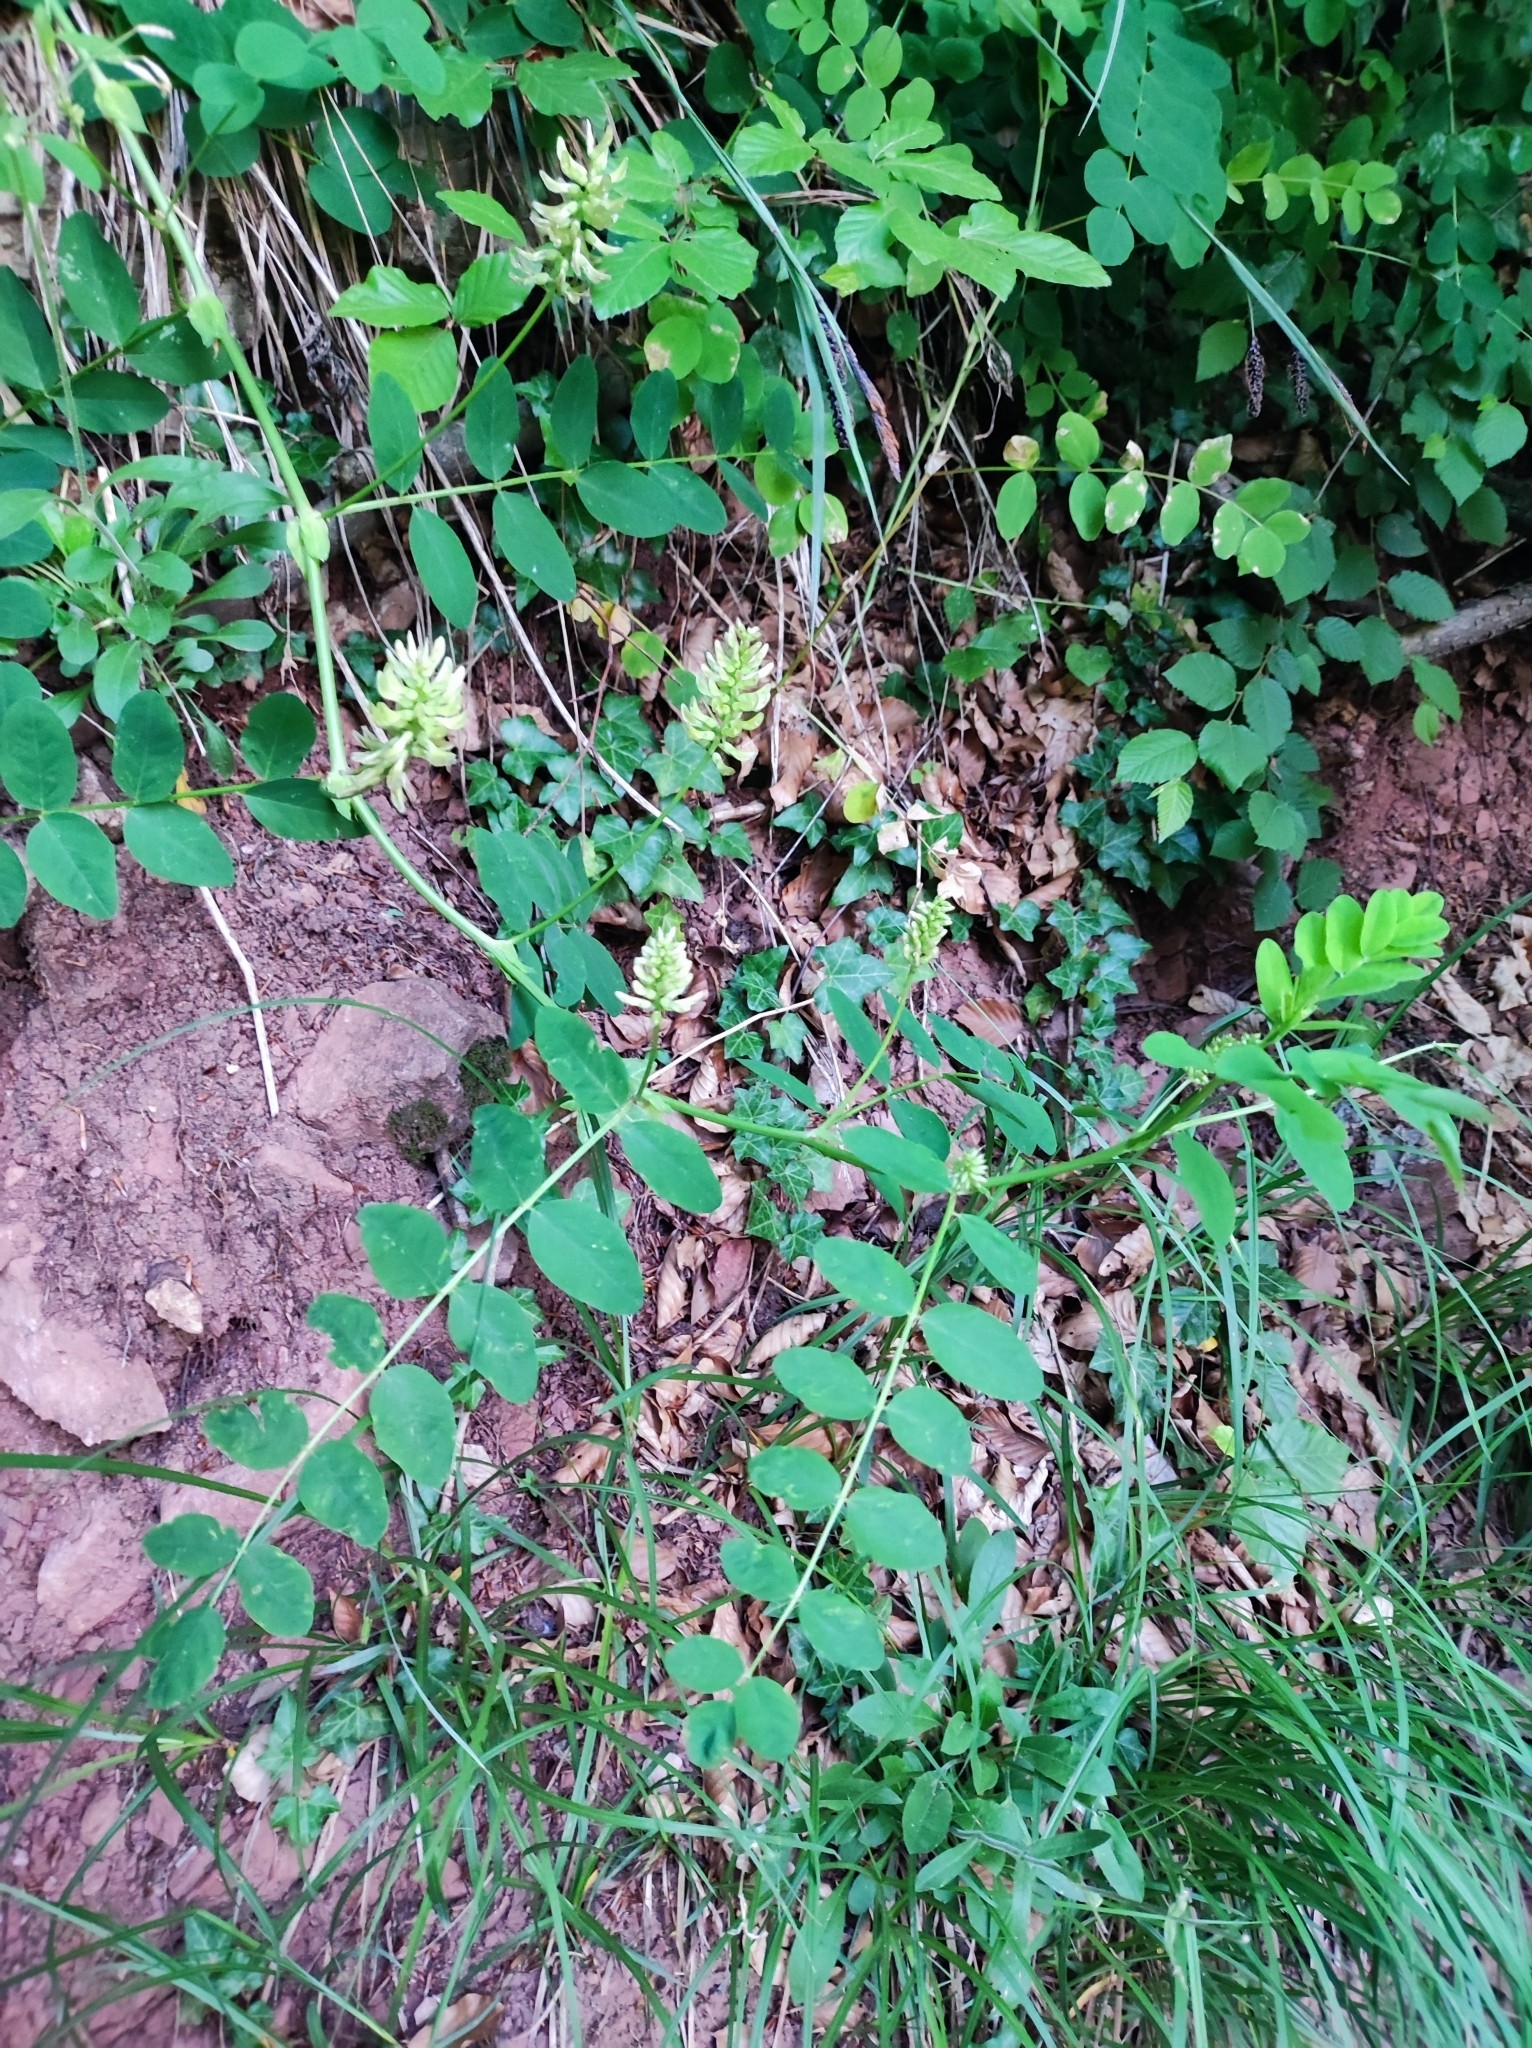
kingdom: Plantae
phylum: Tracheophyta
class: Magnoliopsida
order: Fabales
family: Fabaceae
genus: Astragalus
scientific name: Astragalus glycyphyllos
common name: Wild liquorice
